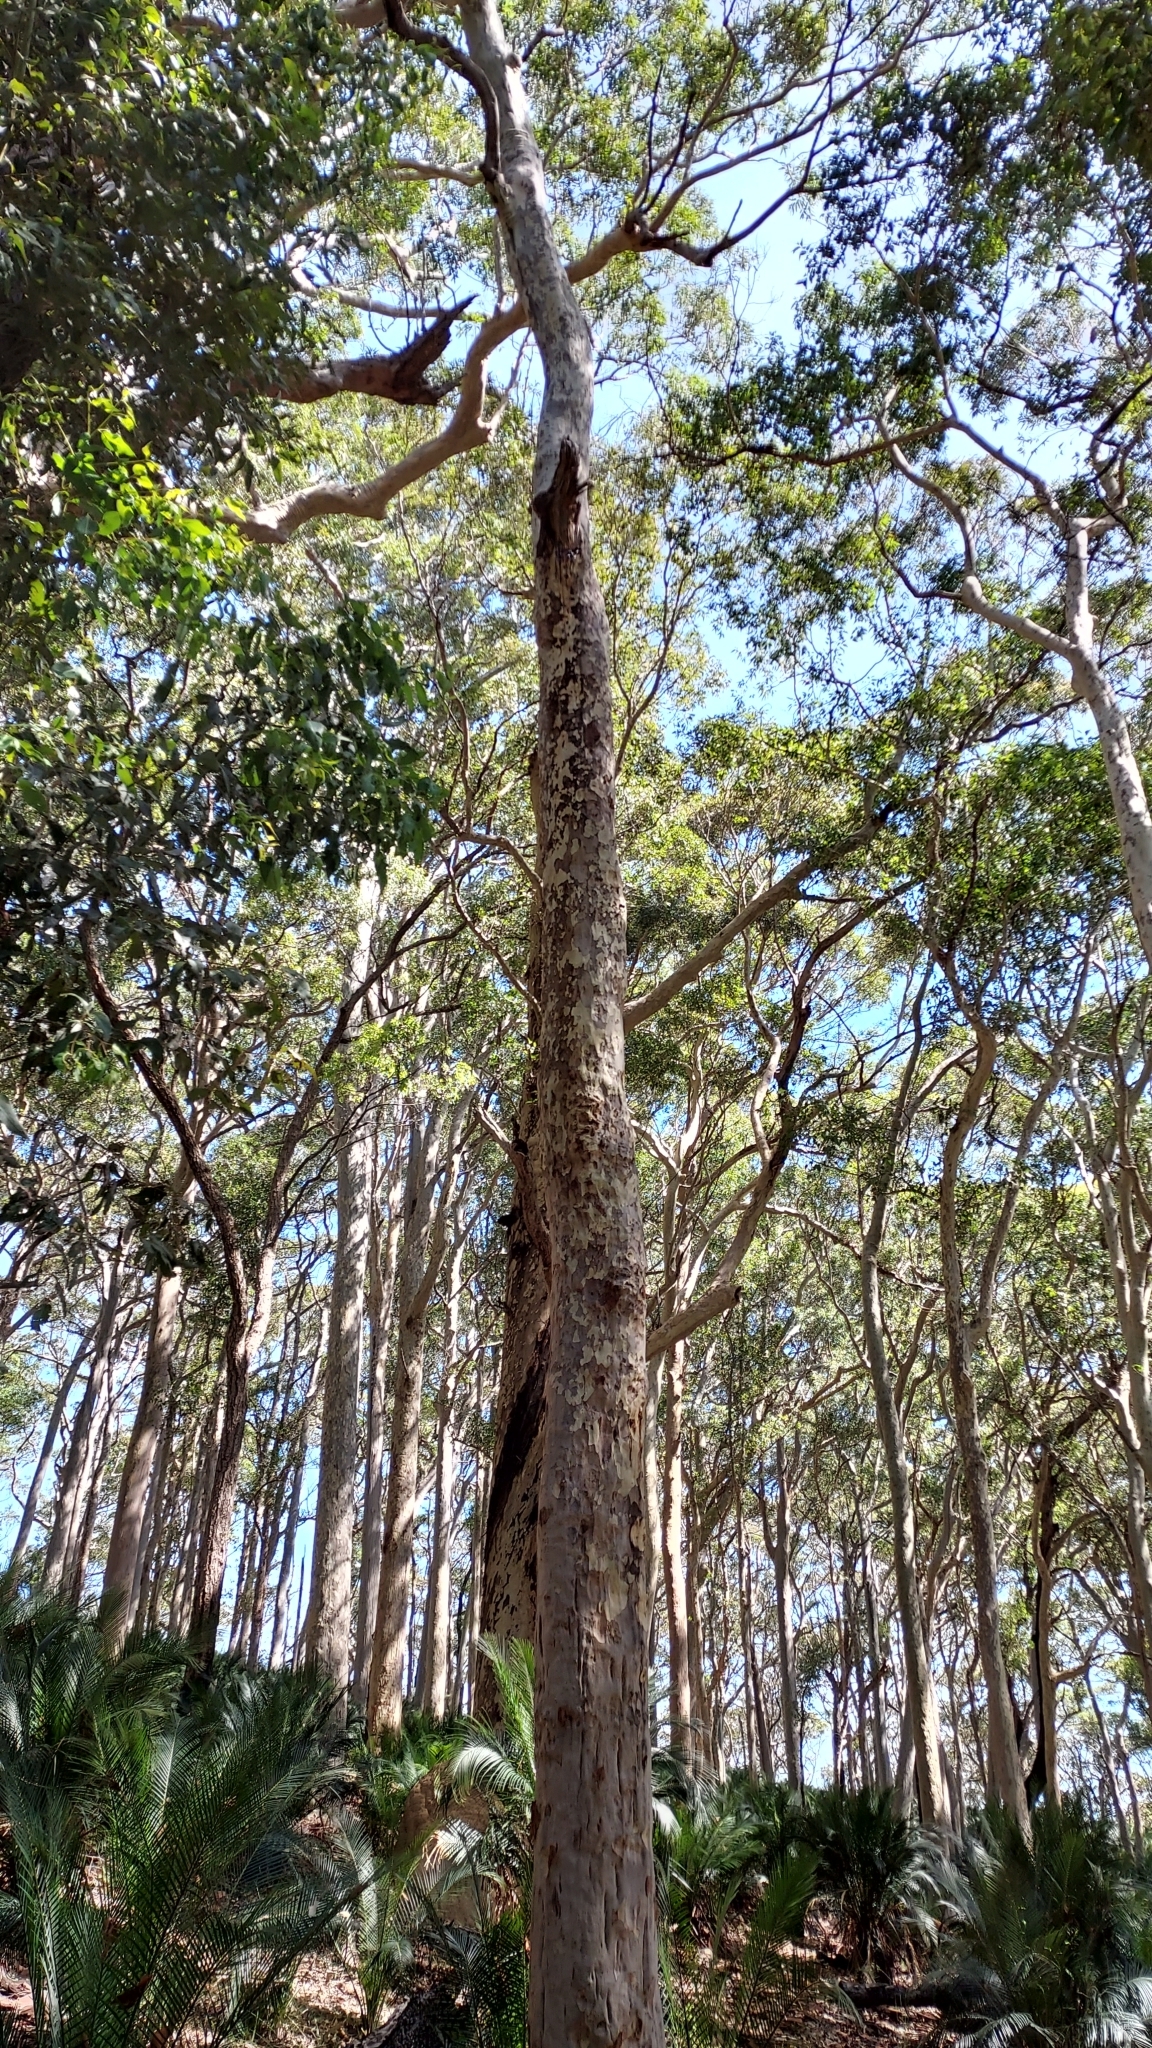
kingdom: Plantae
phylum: Tracheophyta
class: Magnoliopsida
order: Myrtales
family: Myrtaceae
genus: Corymbia
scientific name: Corymbia maculata
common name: Spotted gum
